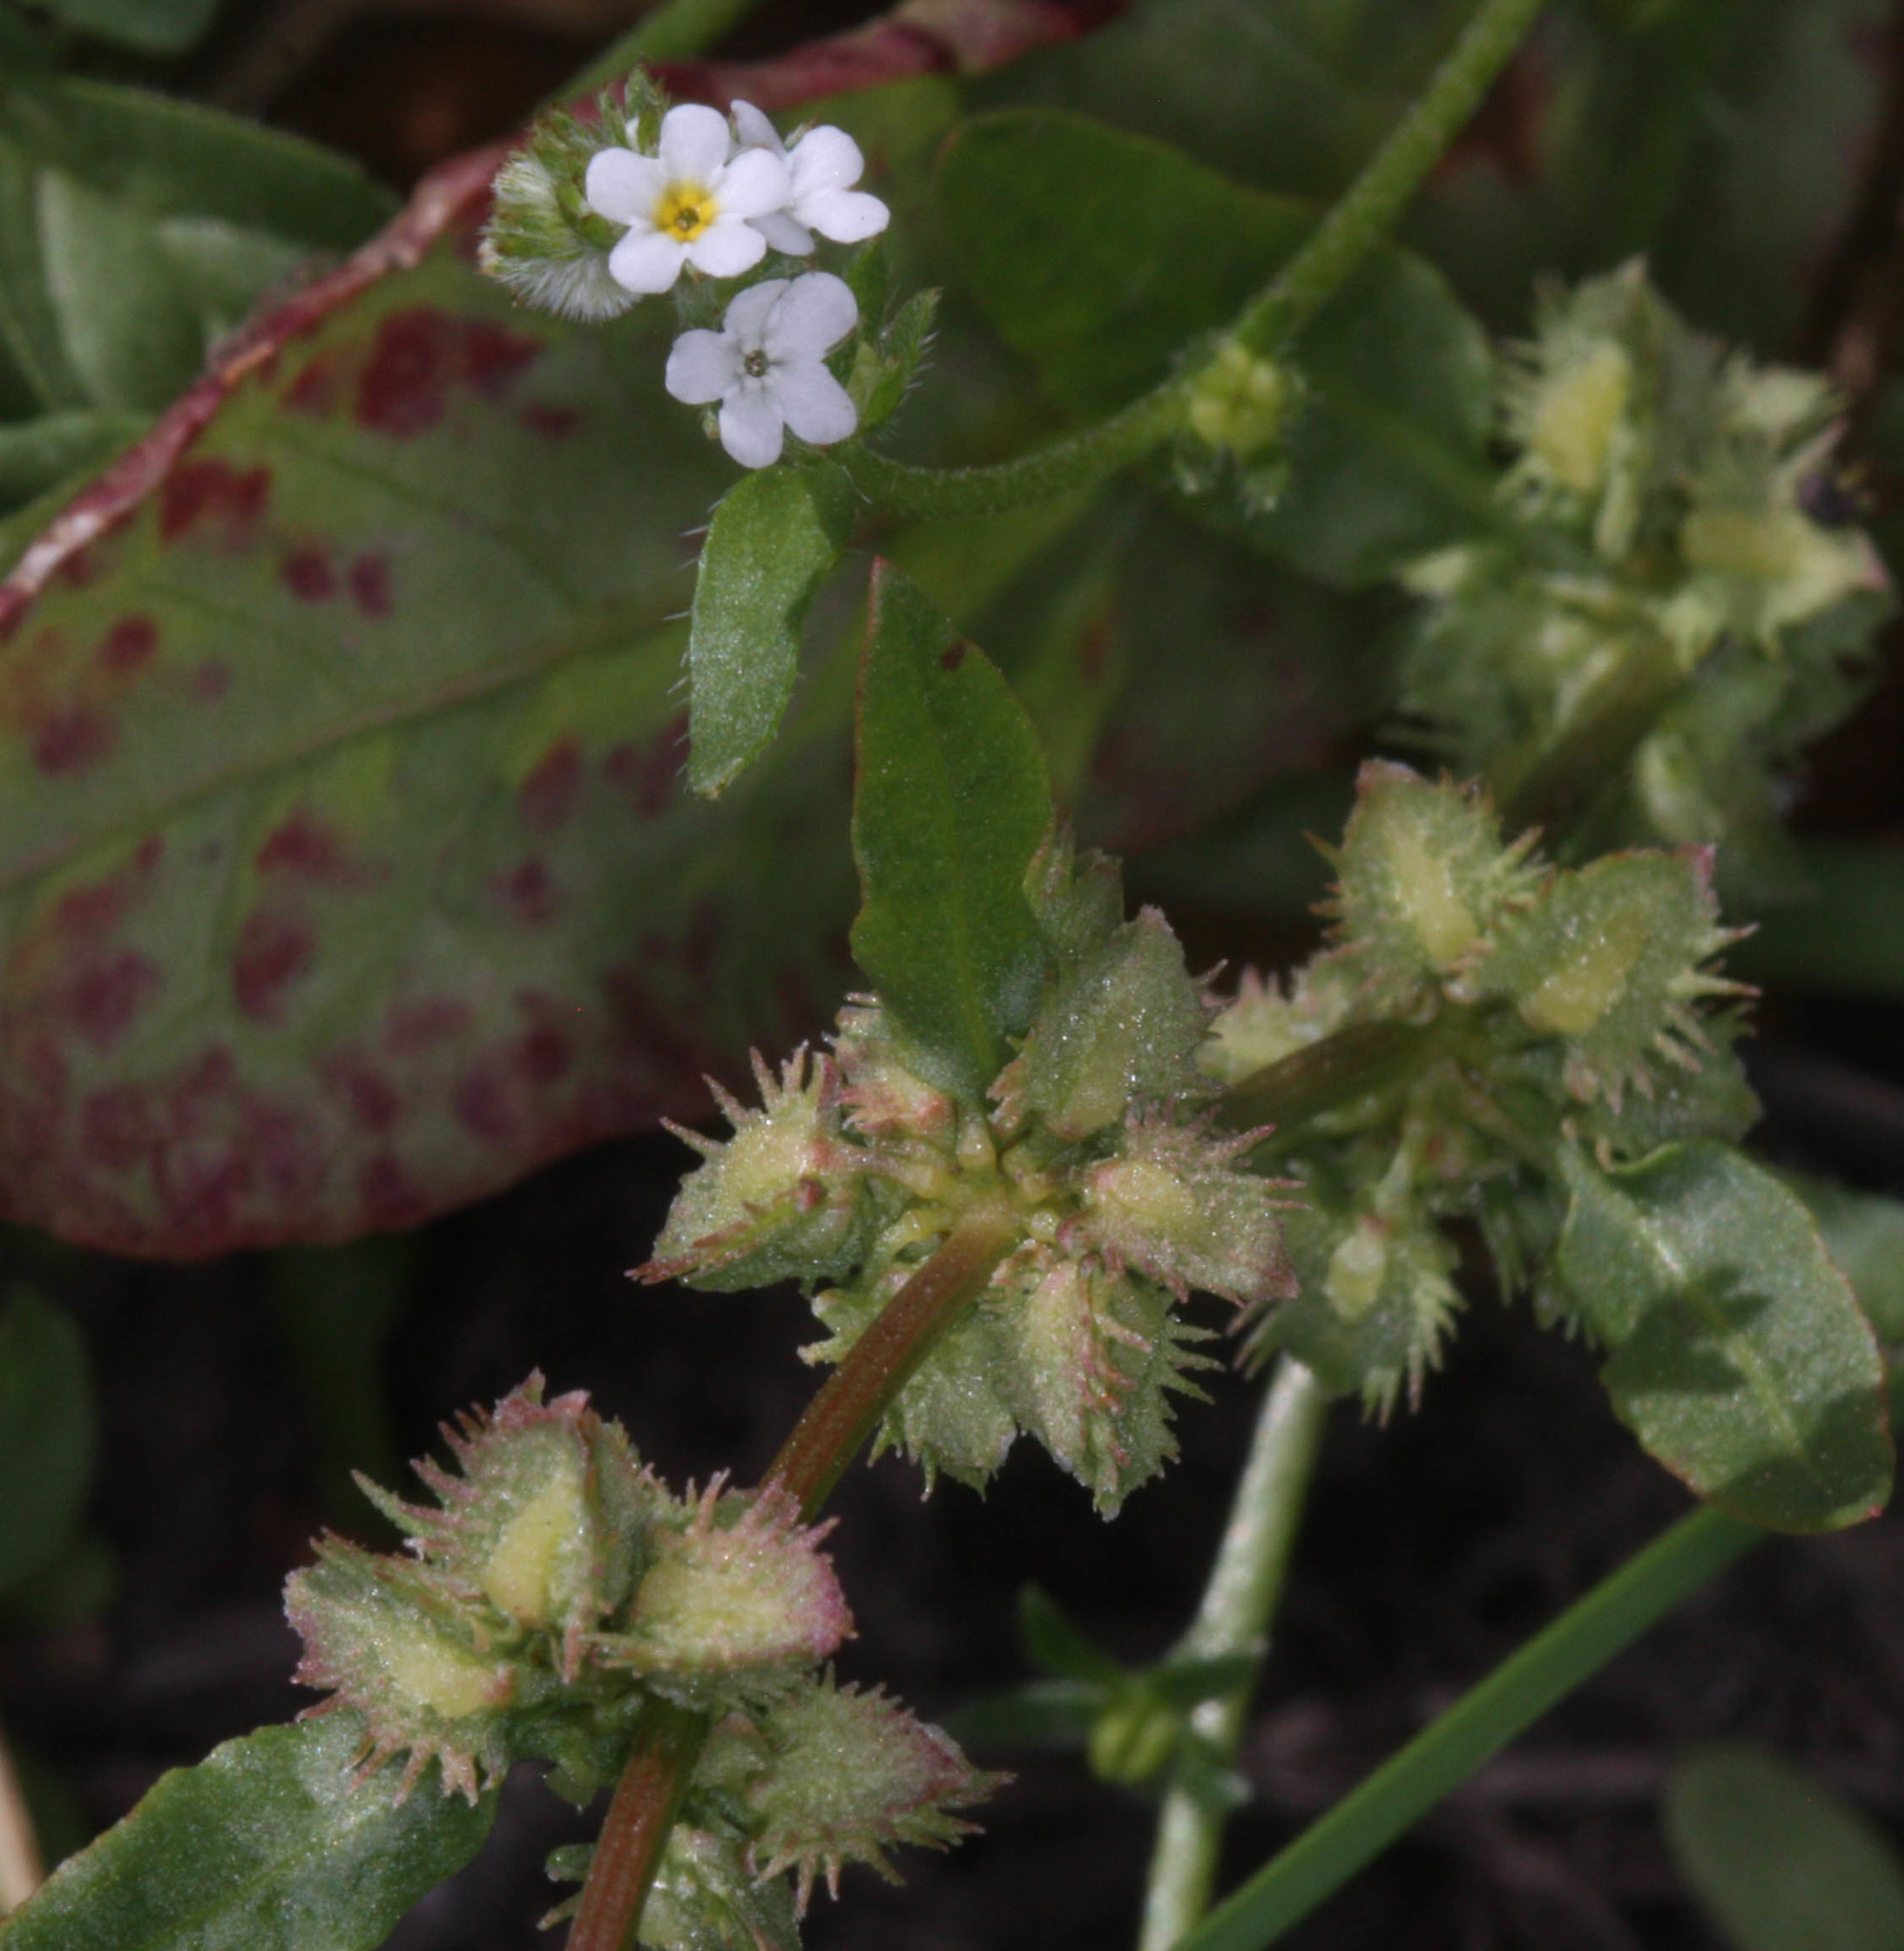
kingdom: Plantae
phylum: Tracheophyta
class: Magnoliopsida
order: Caryophyllales
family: Polygonaceae
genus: Rumex
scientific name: Rumex pulcher
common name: Fiddle dock
